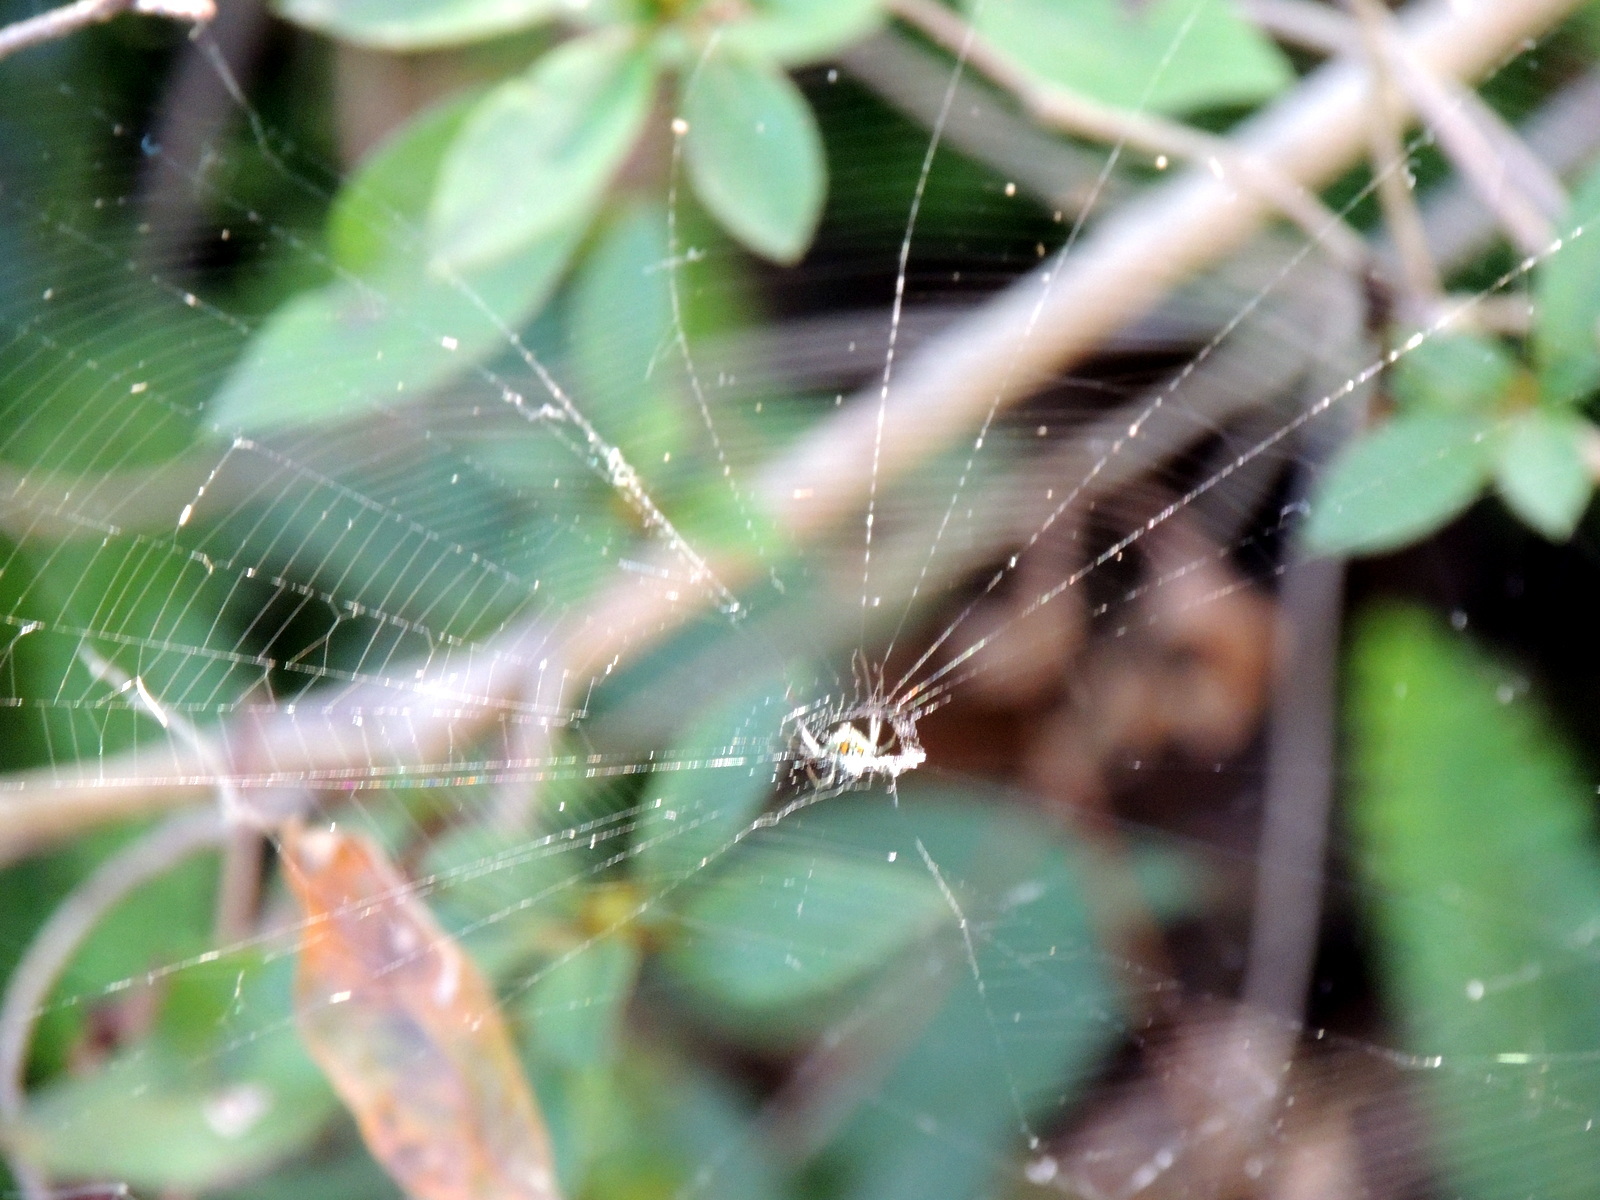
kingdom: Animalia
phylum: Arthropoda
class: Arachnida
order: Araneae
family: Tetragnathidae
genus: Leucauge
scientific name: Leucauge argyrobapta
